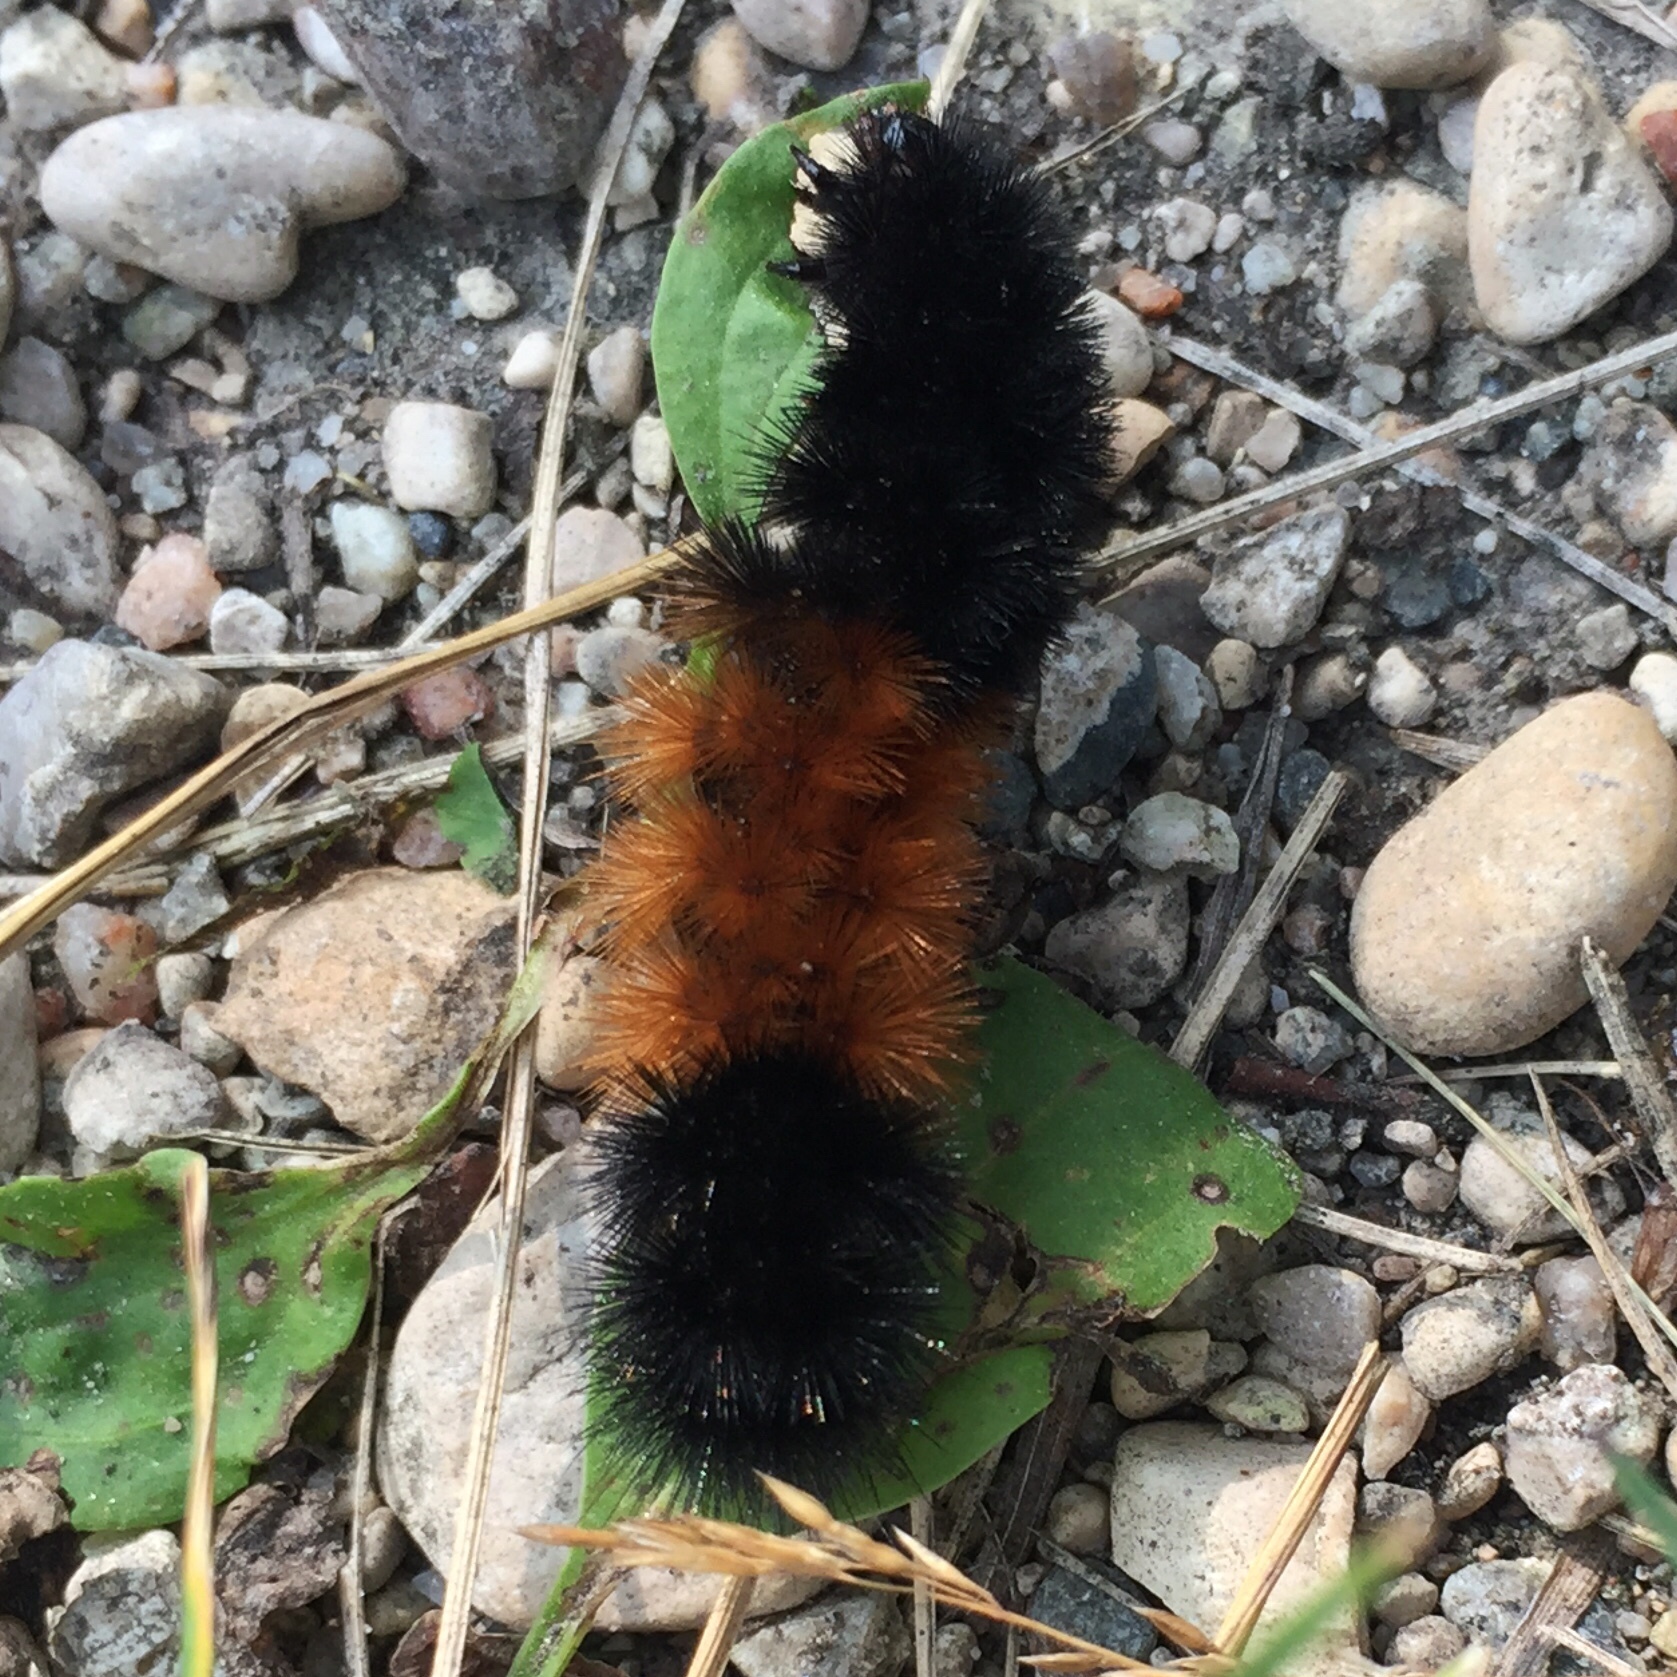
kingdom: Animalia
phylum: Arthropoda
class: Insecta
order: Lepidoptera
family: Erebidae
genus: Pyrrharctia
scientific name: Pyrrharctia isabella
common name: Isabella tiger moth
